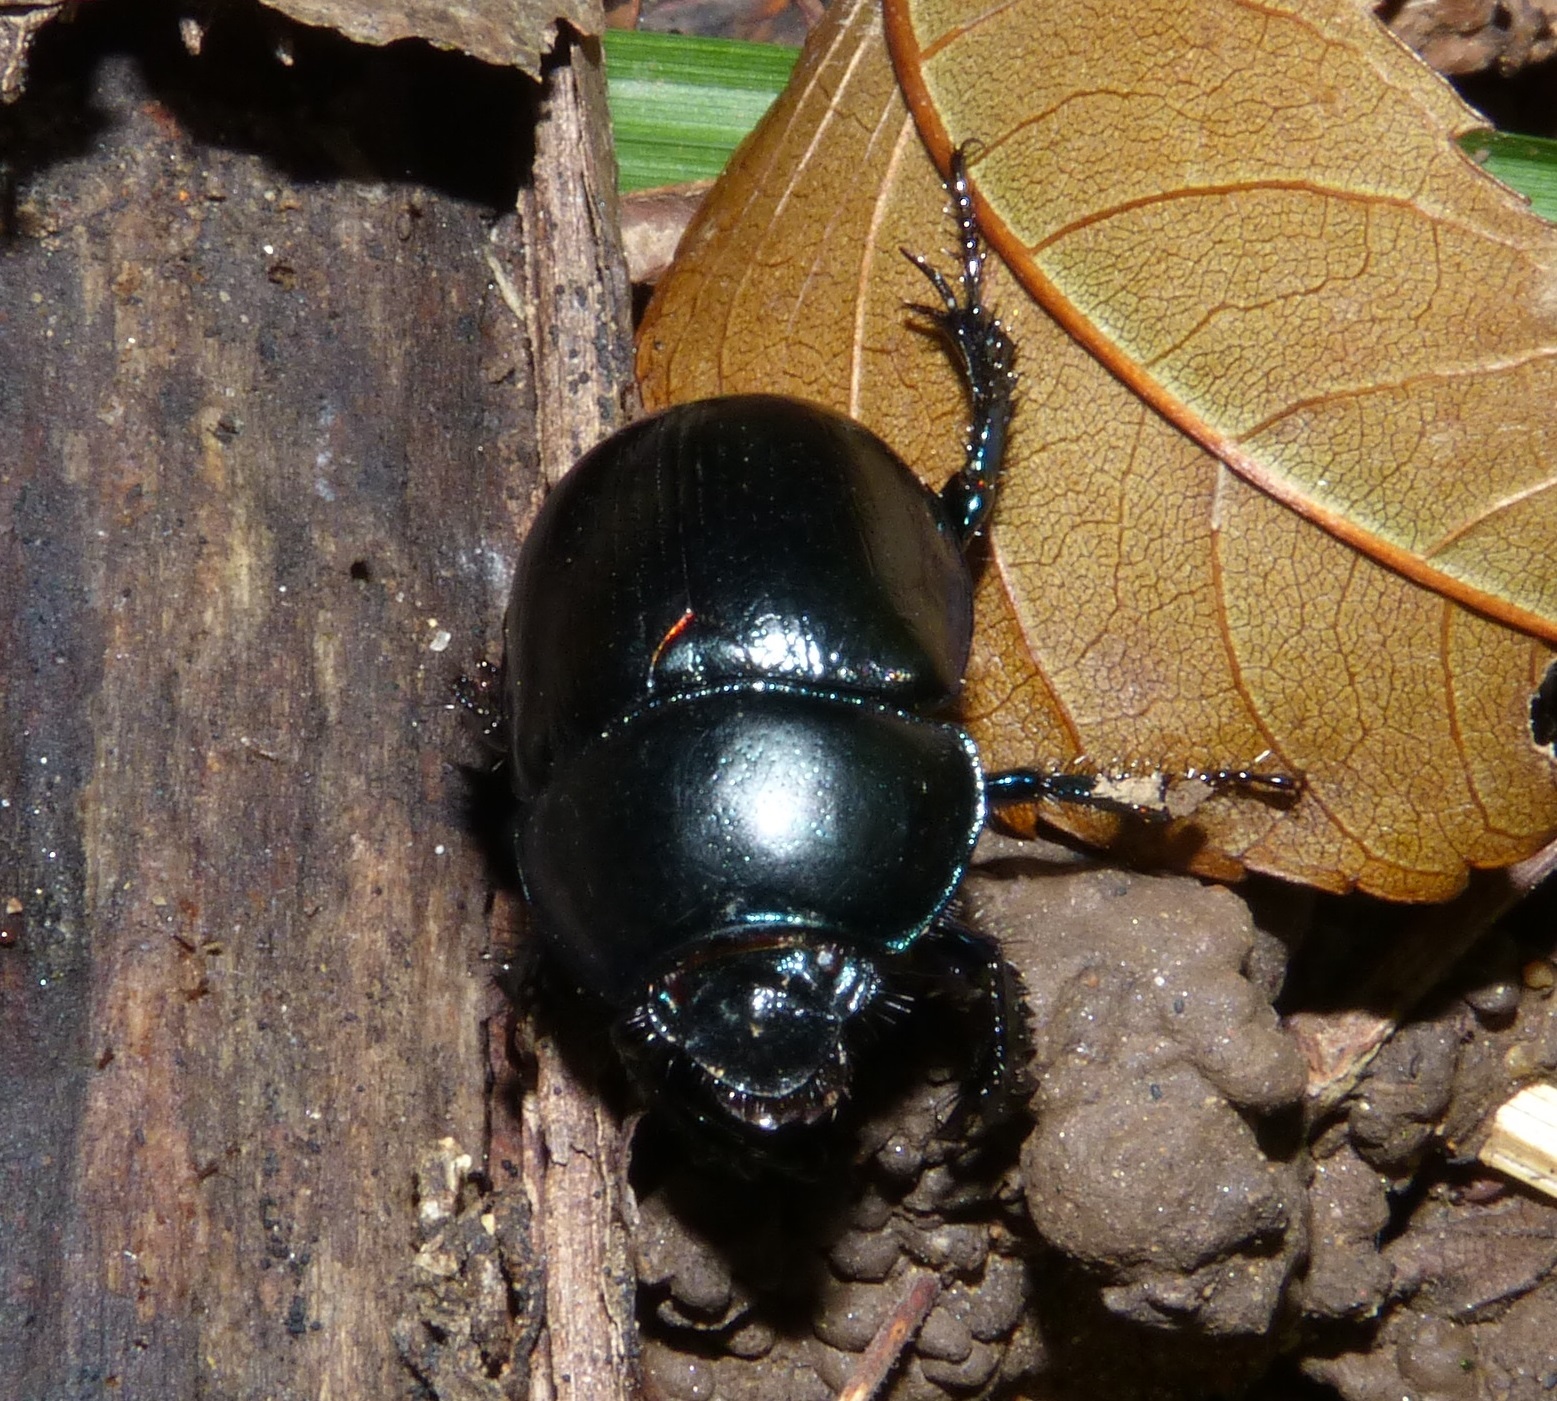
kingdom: Animalia
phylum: Arthropoda
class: Insecta
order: Coleoptera
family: Geotrupidae
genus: Anoplotrupes
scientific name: Anoplotrupes stercorosus
